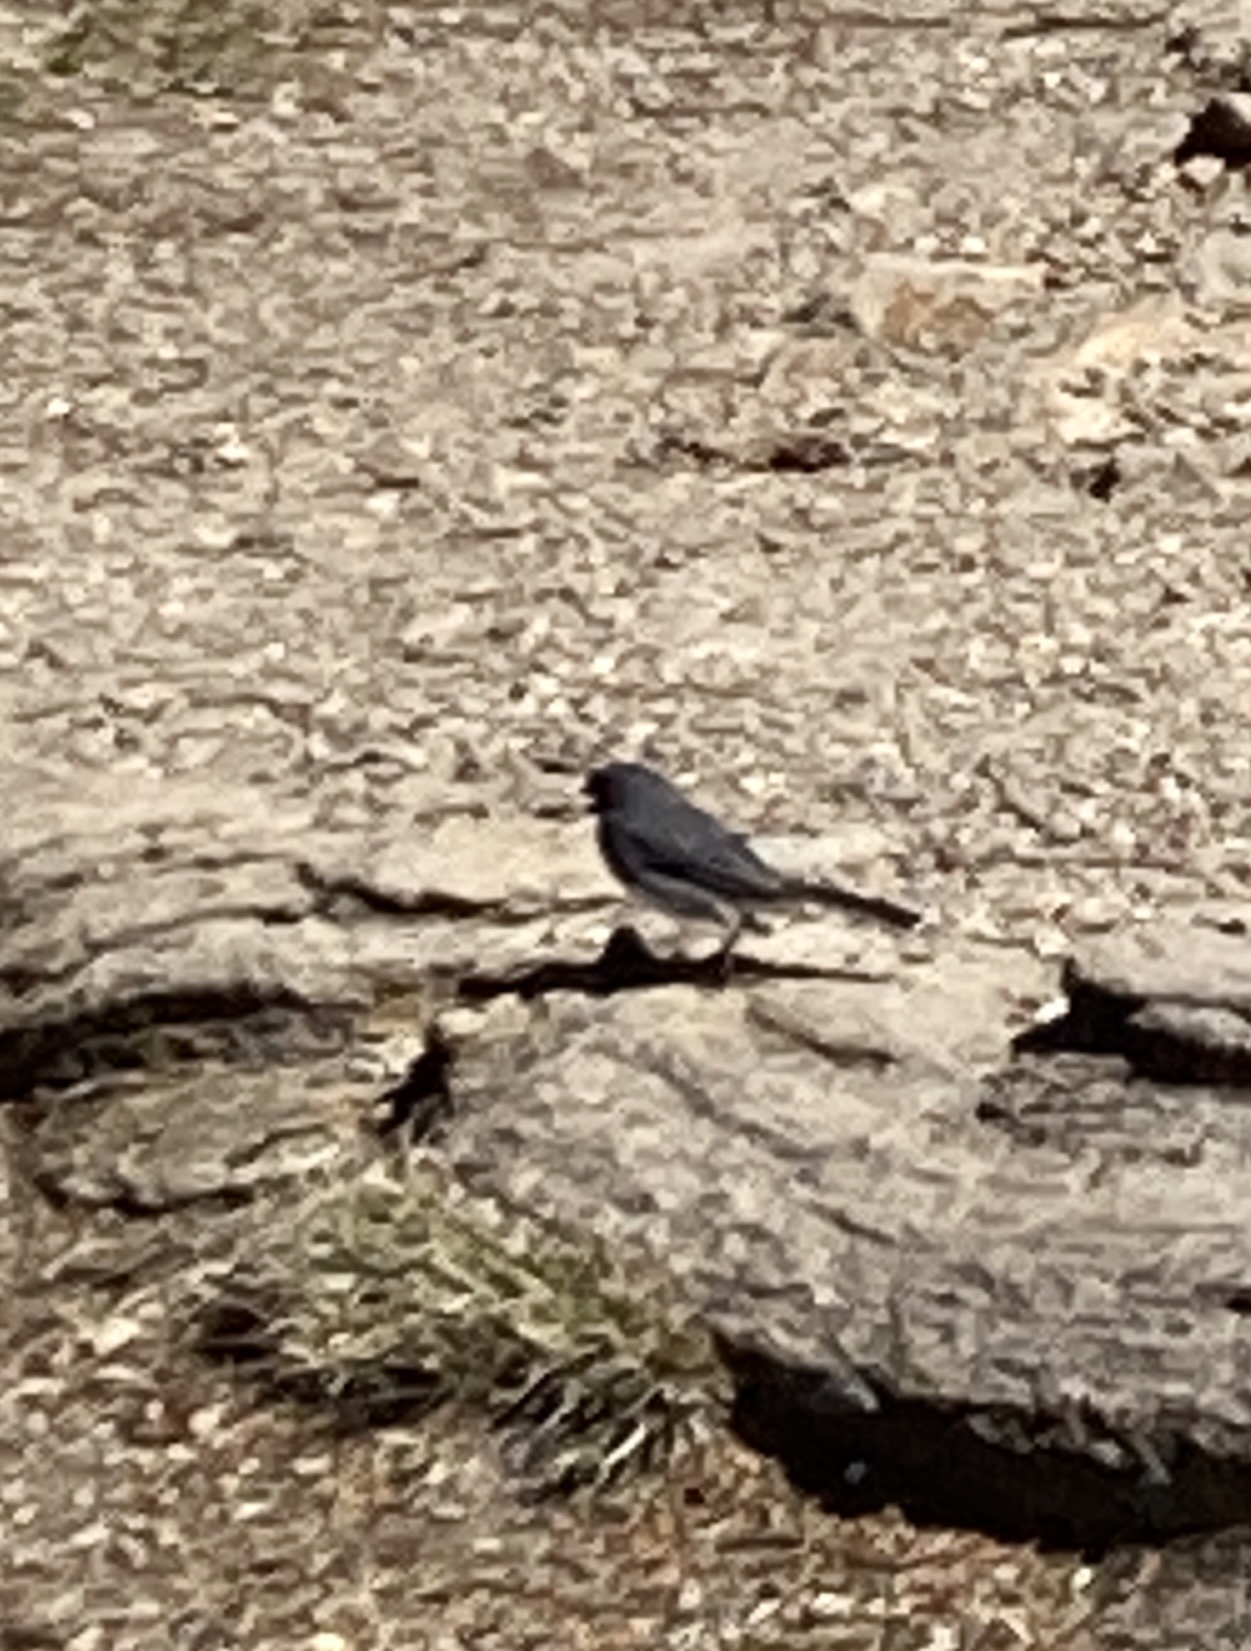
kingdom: Animalia
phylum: Chordata
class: Aves
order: Passeriformes
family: Passerellidae
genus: Junco
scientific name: Junco hyemalis
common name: Dark-eyed junco
